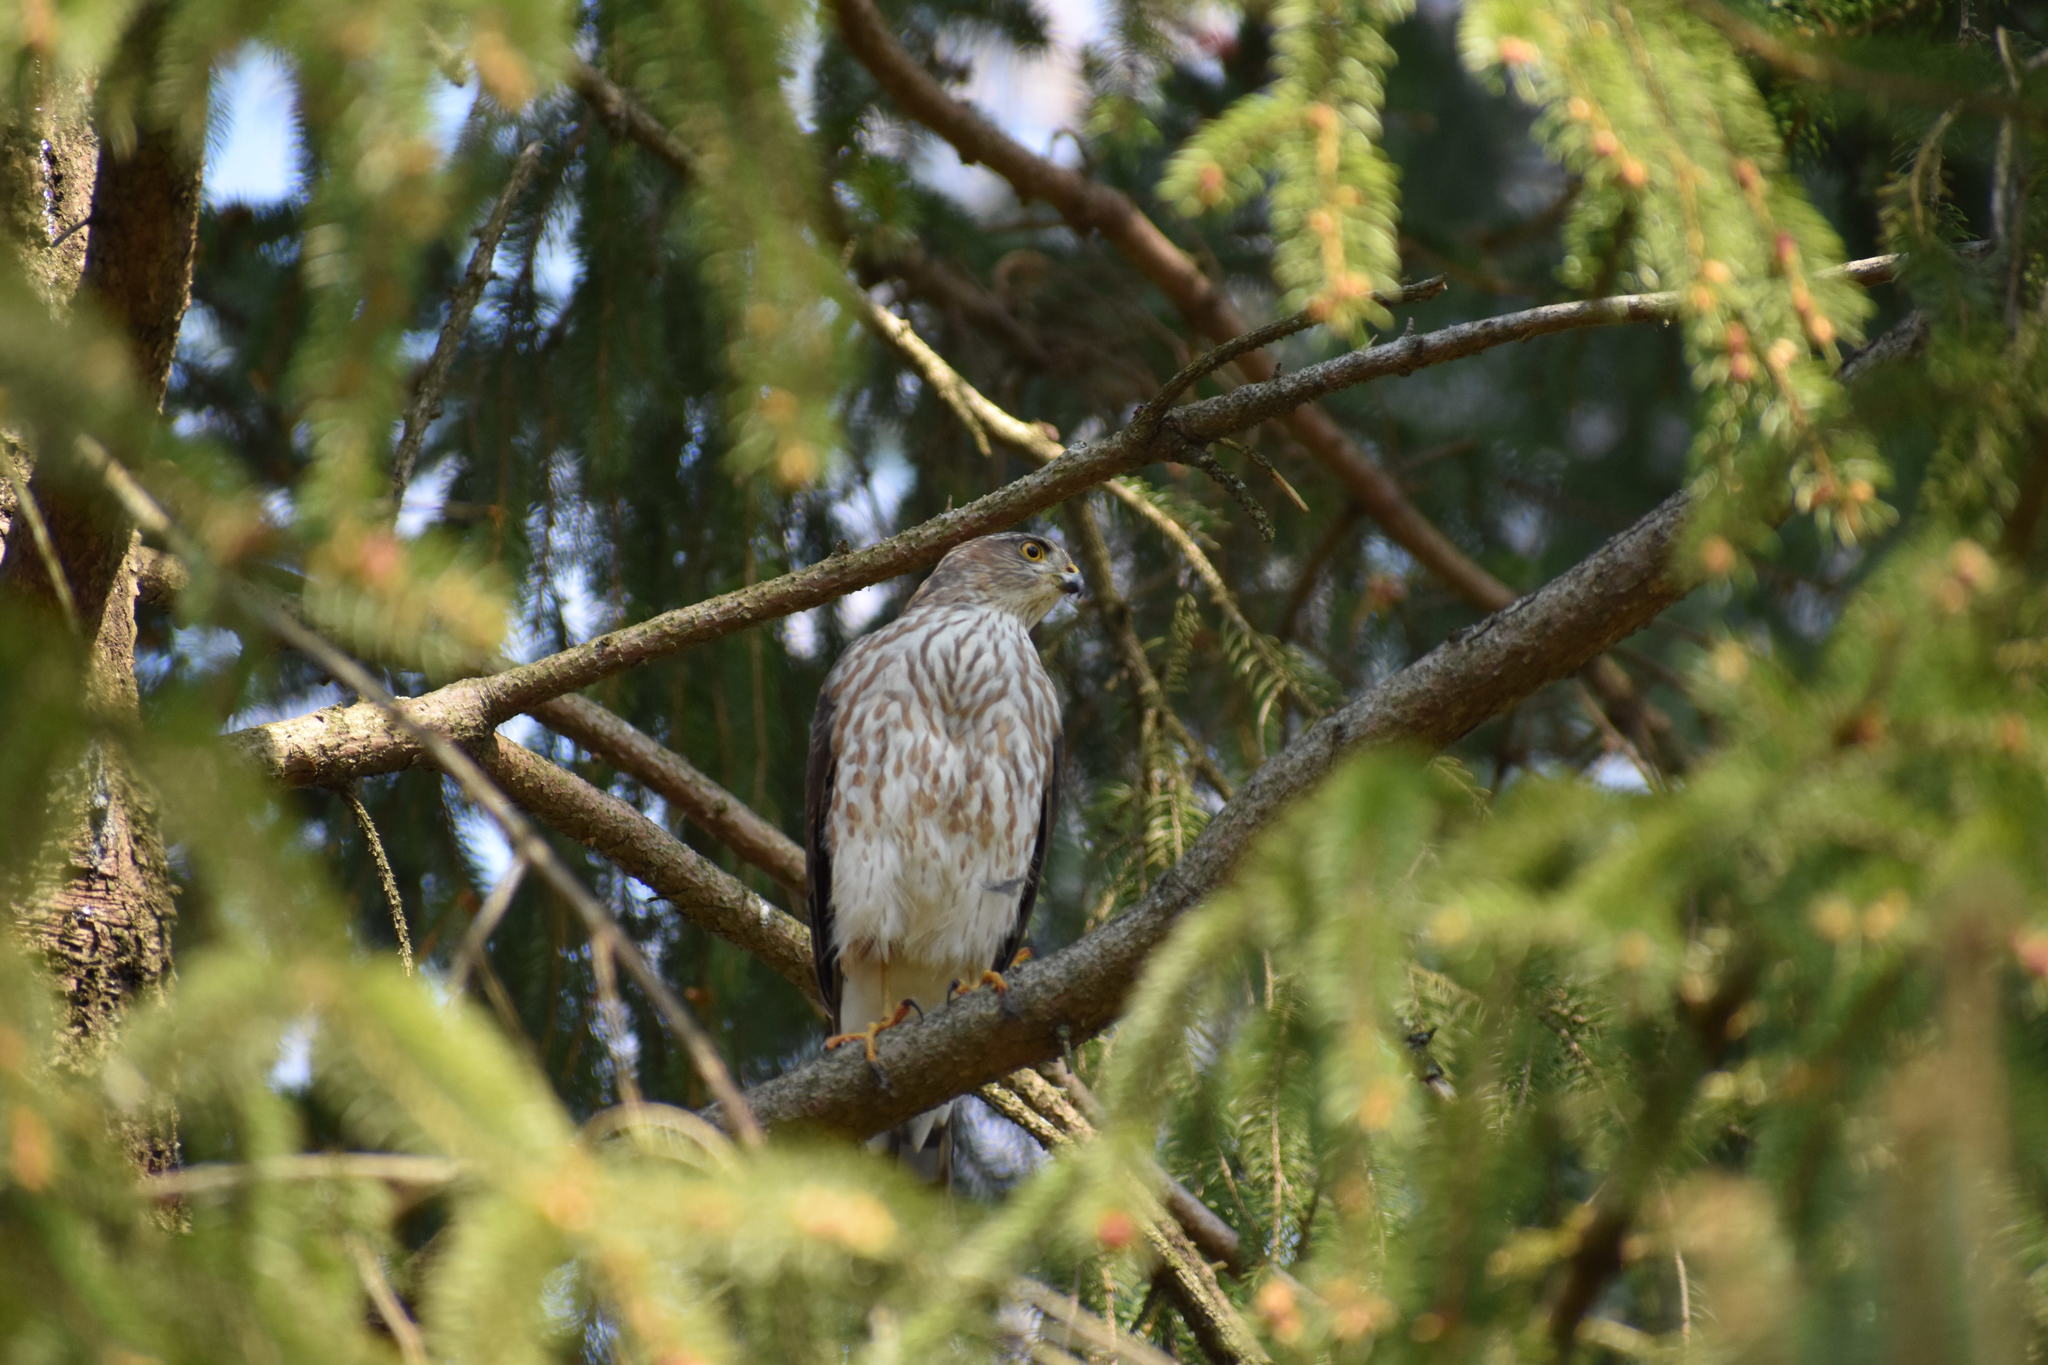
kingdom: Animalia
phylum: Chordata
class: Aves
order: Accipitriformes
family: Accipitridae
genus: Accipiter
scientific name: Accipiter striatus
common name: Sharp-shinned hawk
